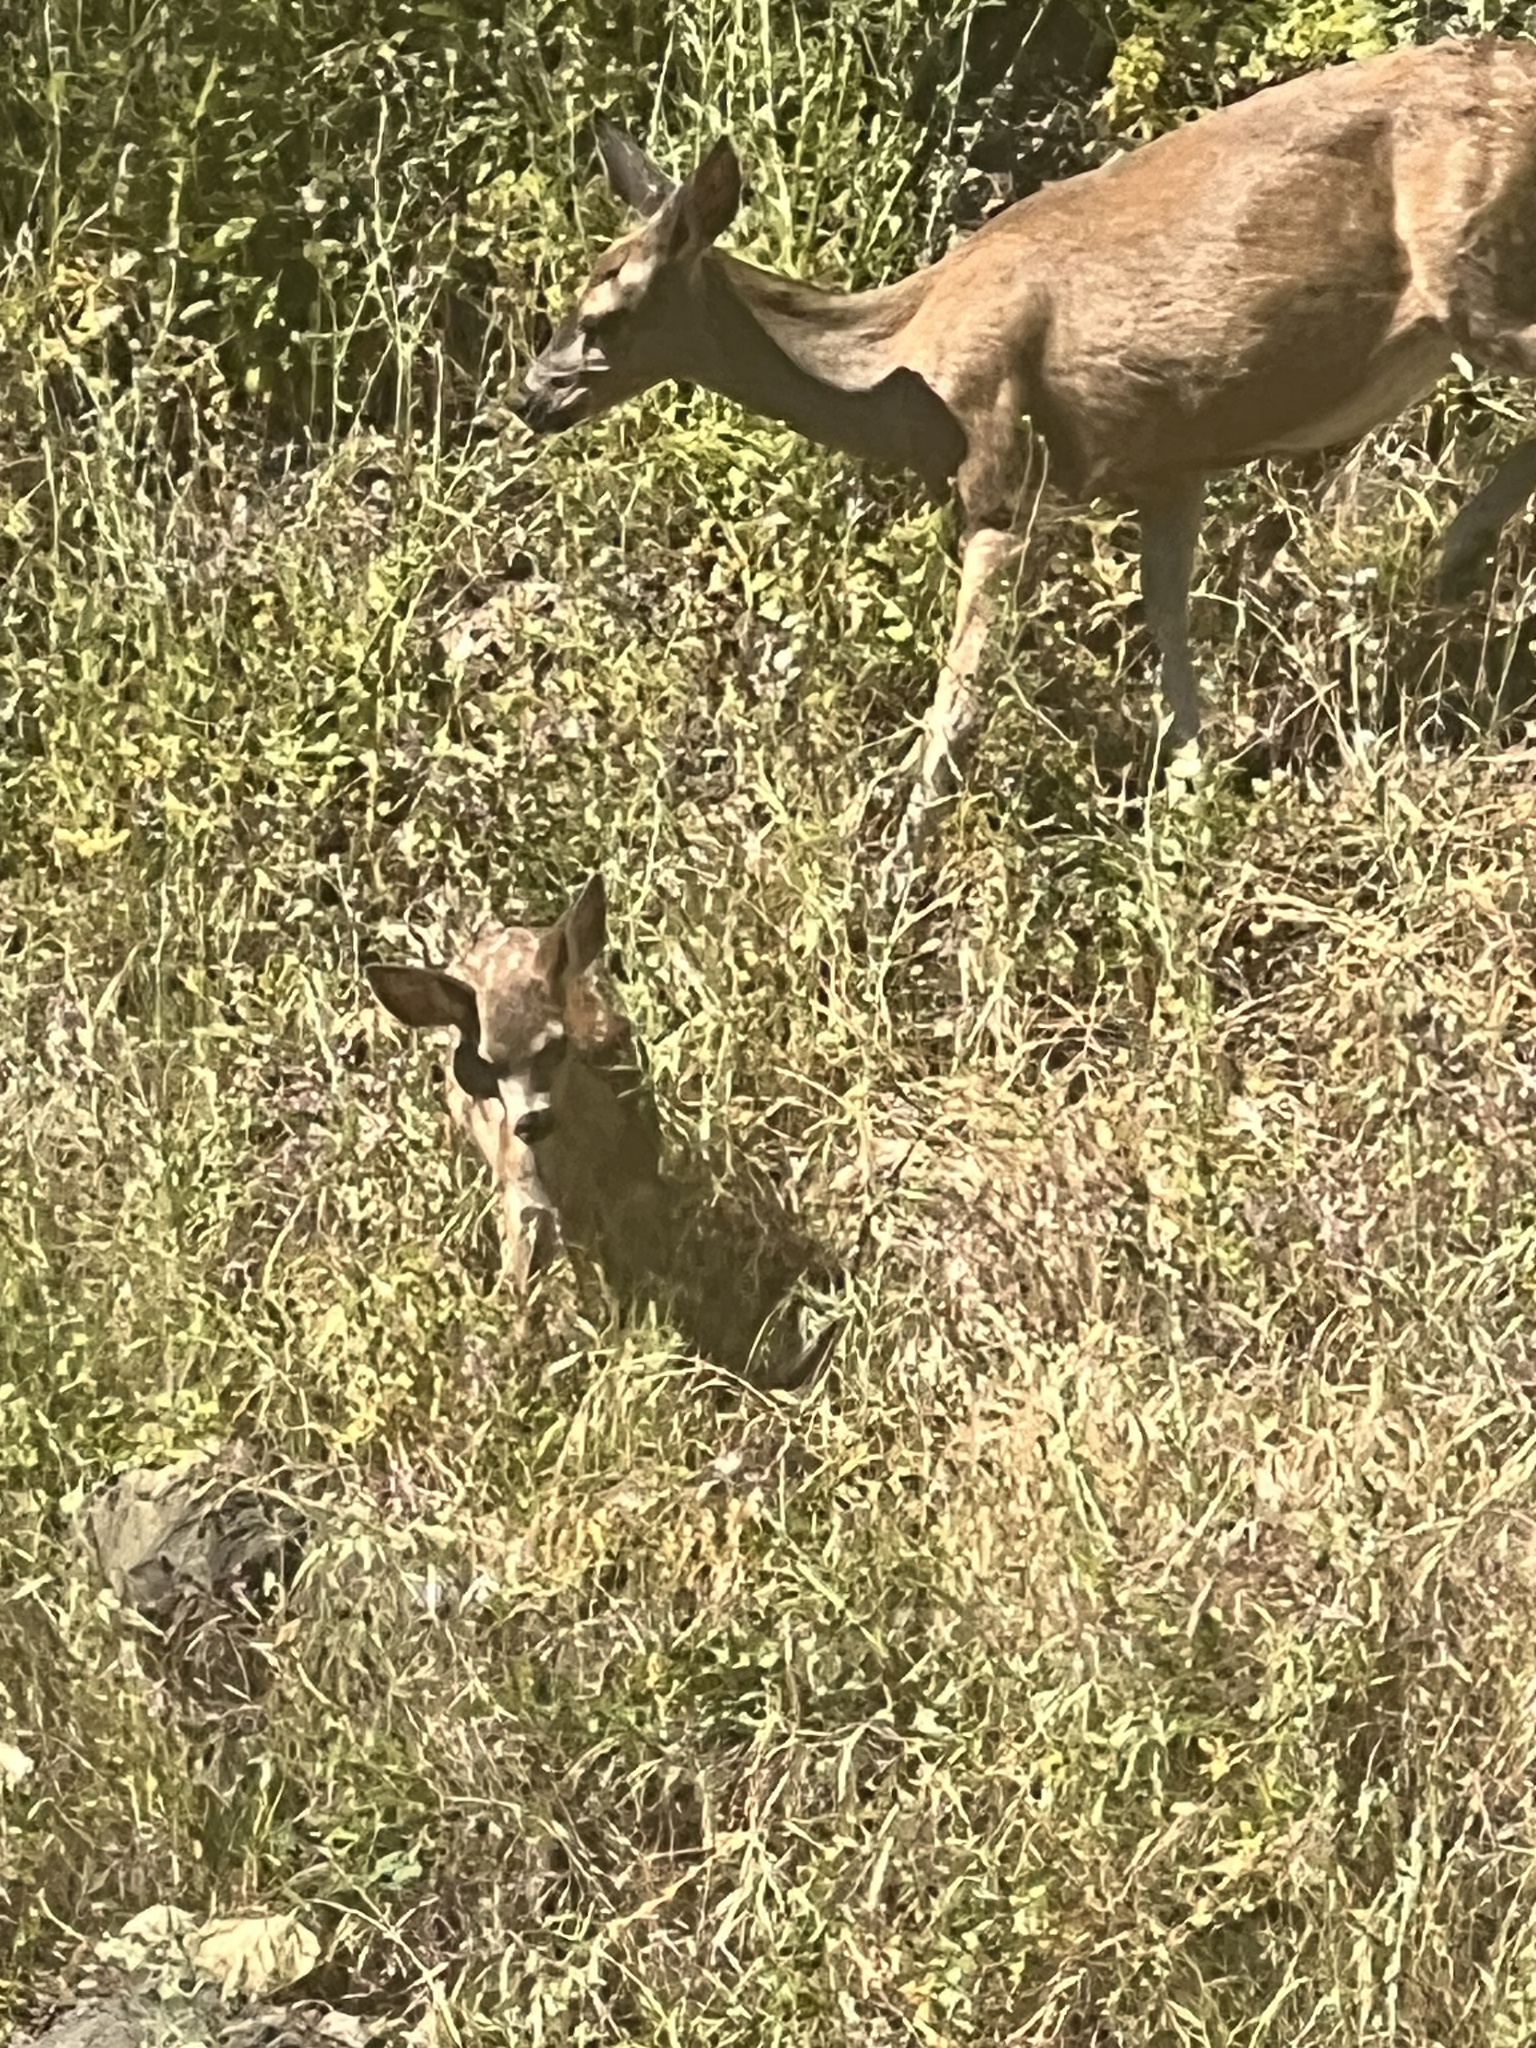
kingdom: Animalia
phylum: Chordata
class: Mammalia
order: Artiodactyla
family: Cervidae
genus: Odocoileus
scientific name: Odocoileus hemionus
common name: Mule deer
